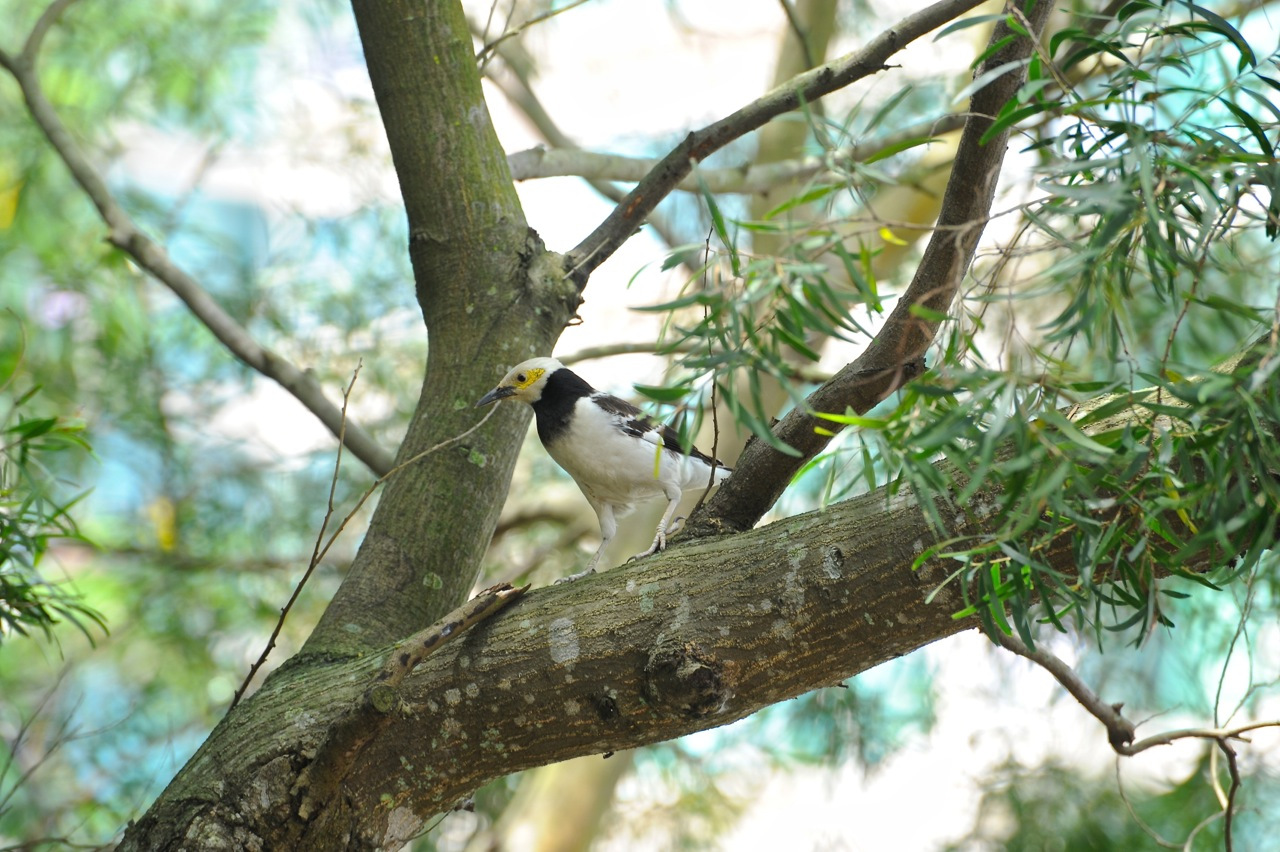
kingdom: Animalia
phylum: Chordata
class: Aves
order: Passeriformes
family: Sturnidae
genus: Gracupica
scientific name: Gracupica nigricollis
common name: Black-collared starling
